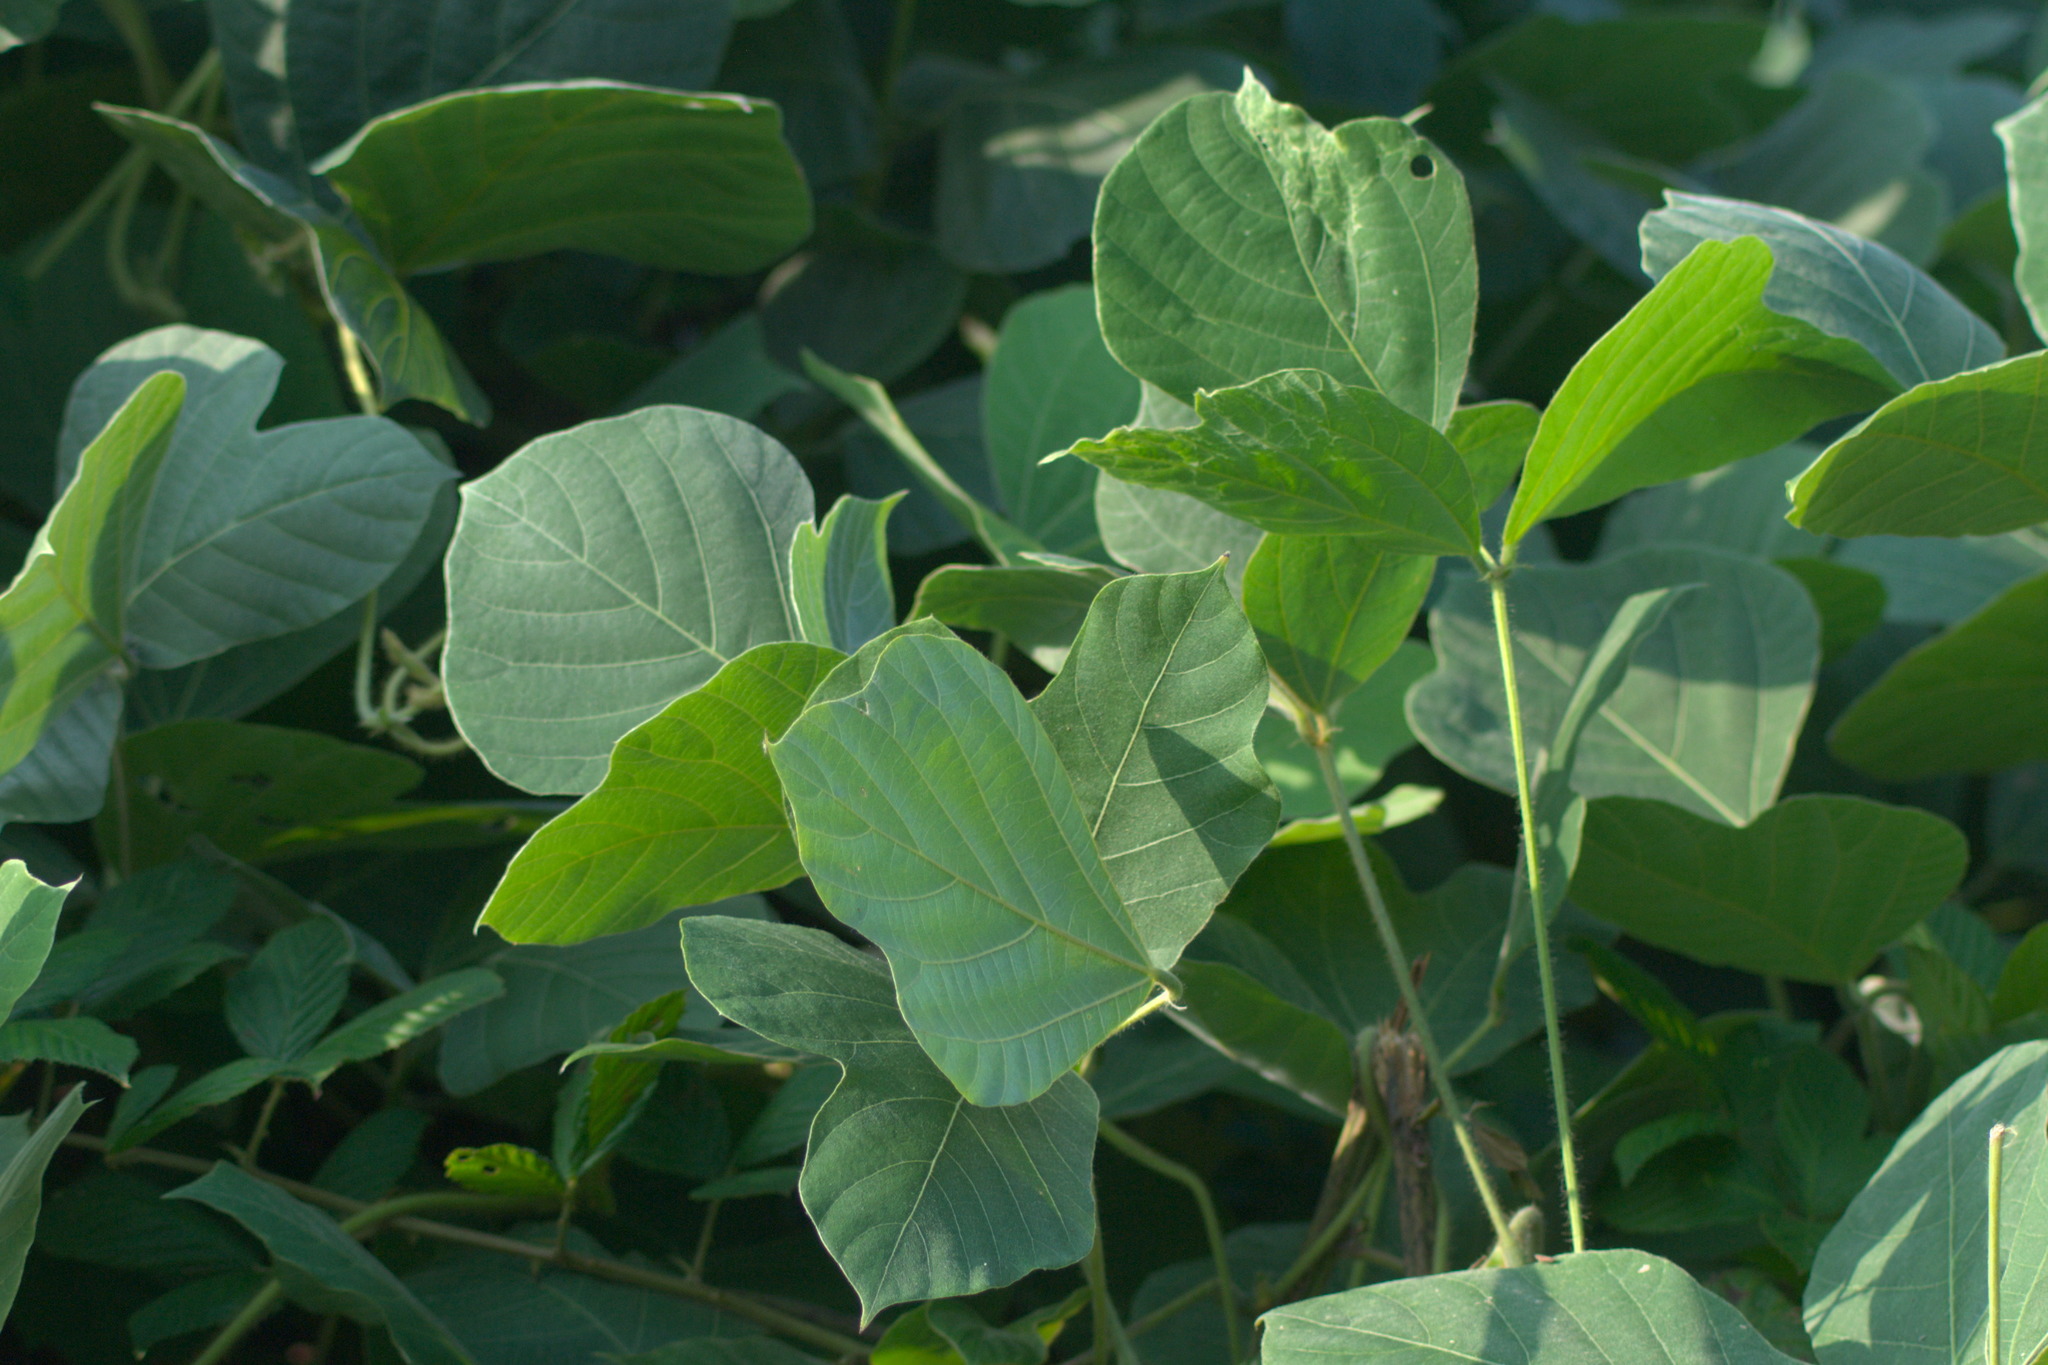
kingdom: Plantae
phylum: Tracheophyta
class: Magnoliopsida
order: Fabales
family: Fabaceae
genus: Pueraria
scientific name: Pueraria montana
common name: Kudzu
